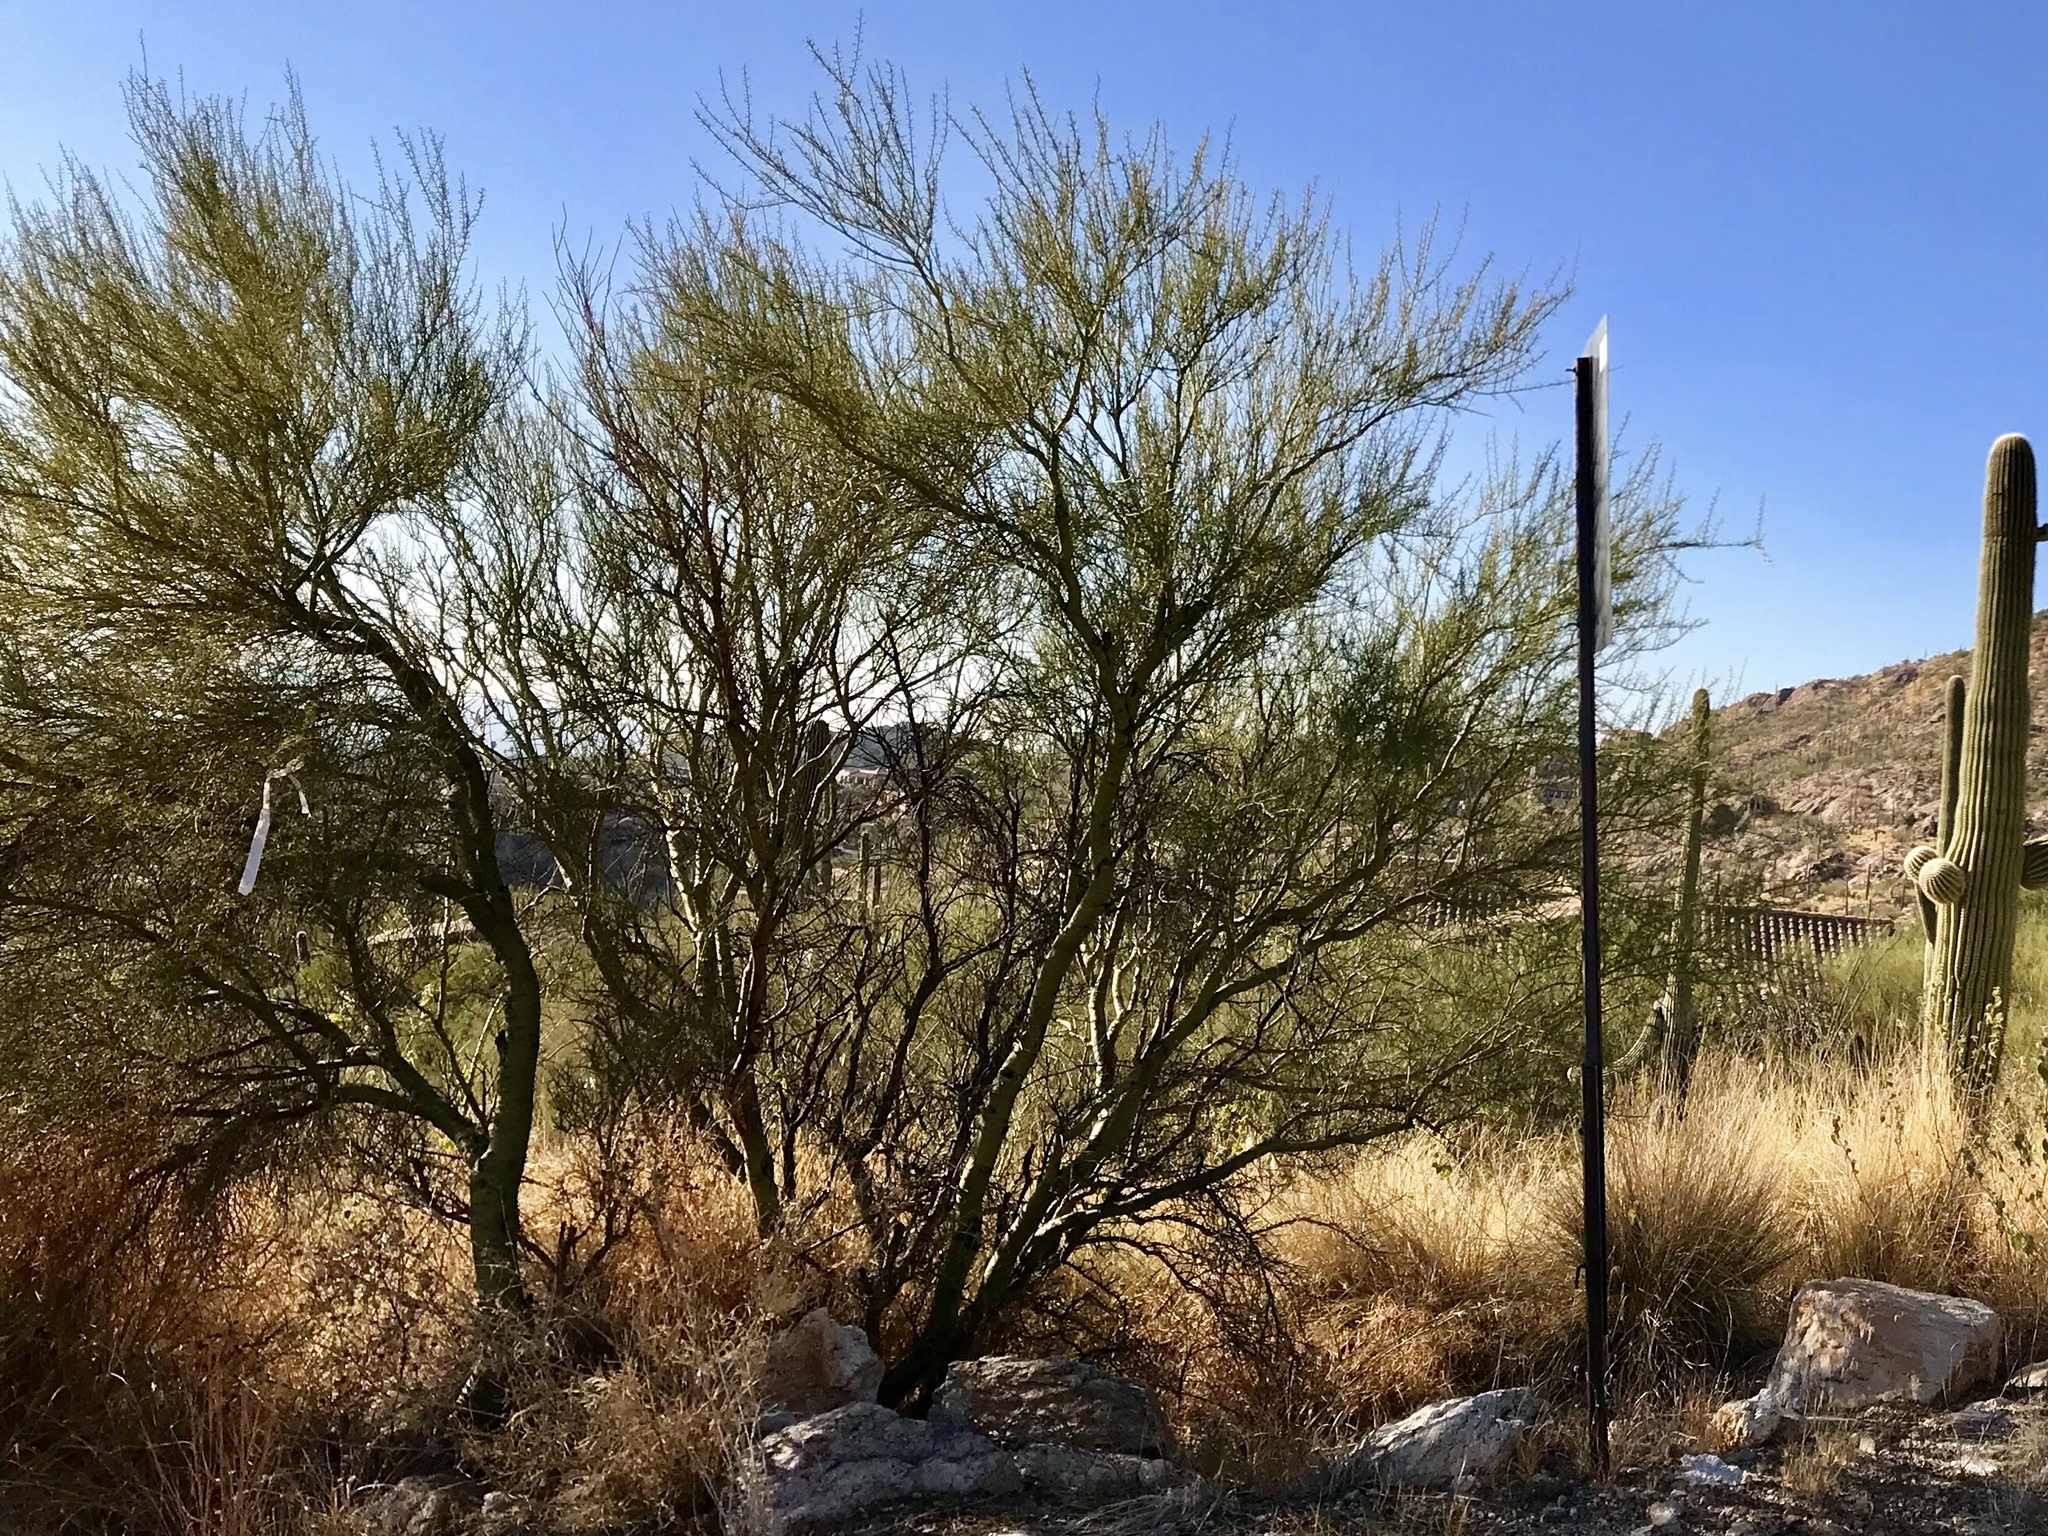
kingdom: Plantae
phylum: Tracheophyta
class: Magnoliopsida
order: Fabales
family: Fabaceae
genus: Parkinsonia
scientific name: Parkinsonia microphylla
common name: Yellow paloverde
